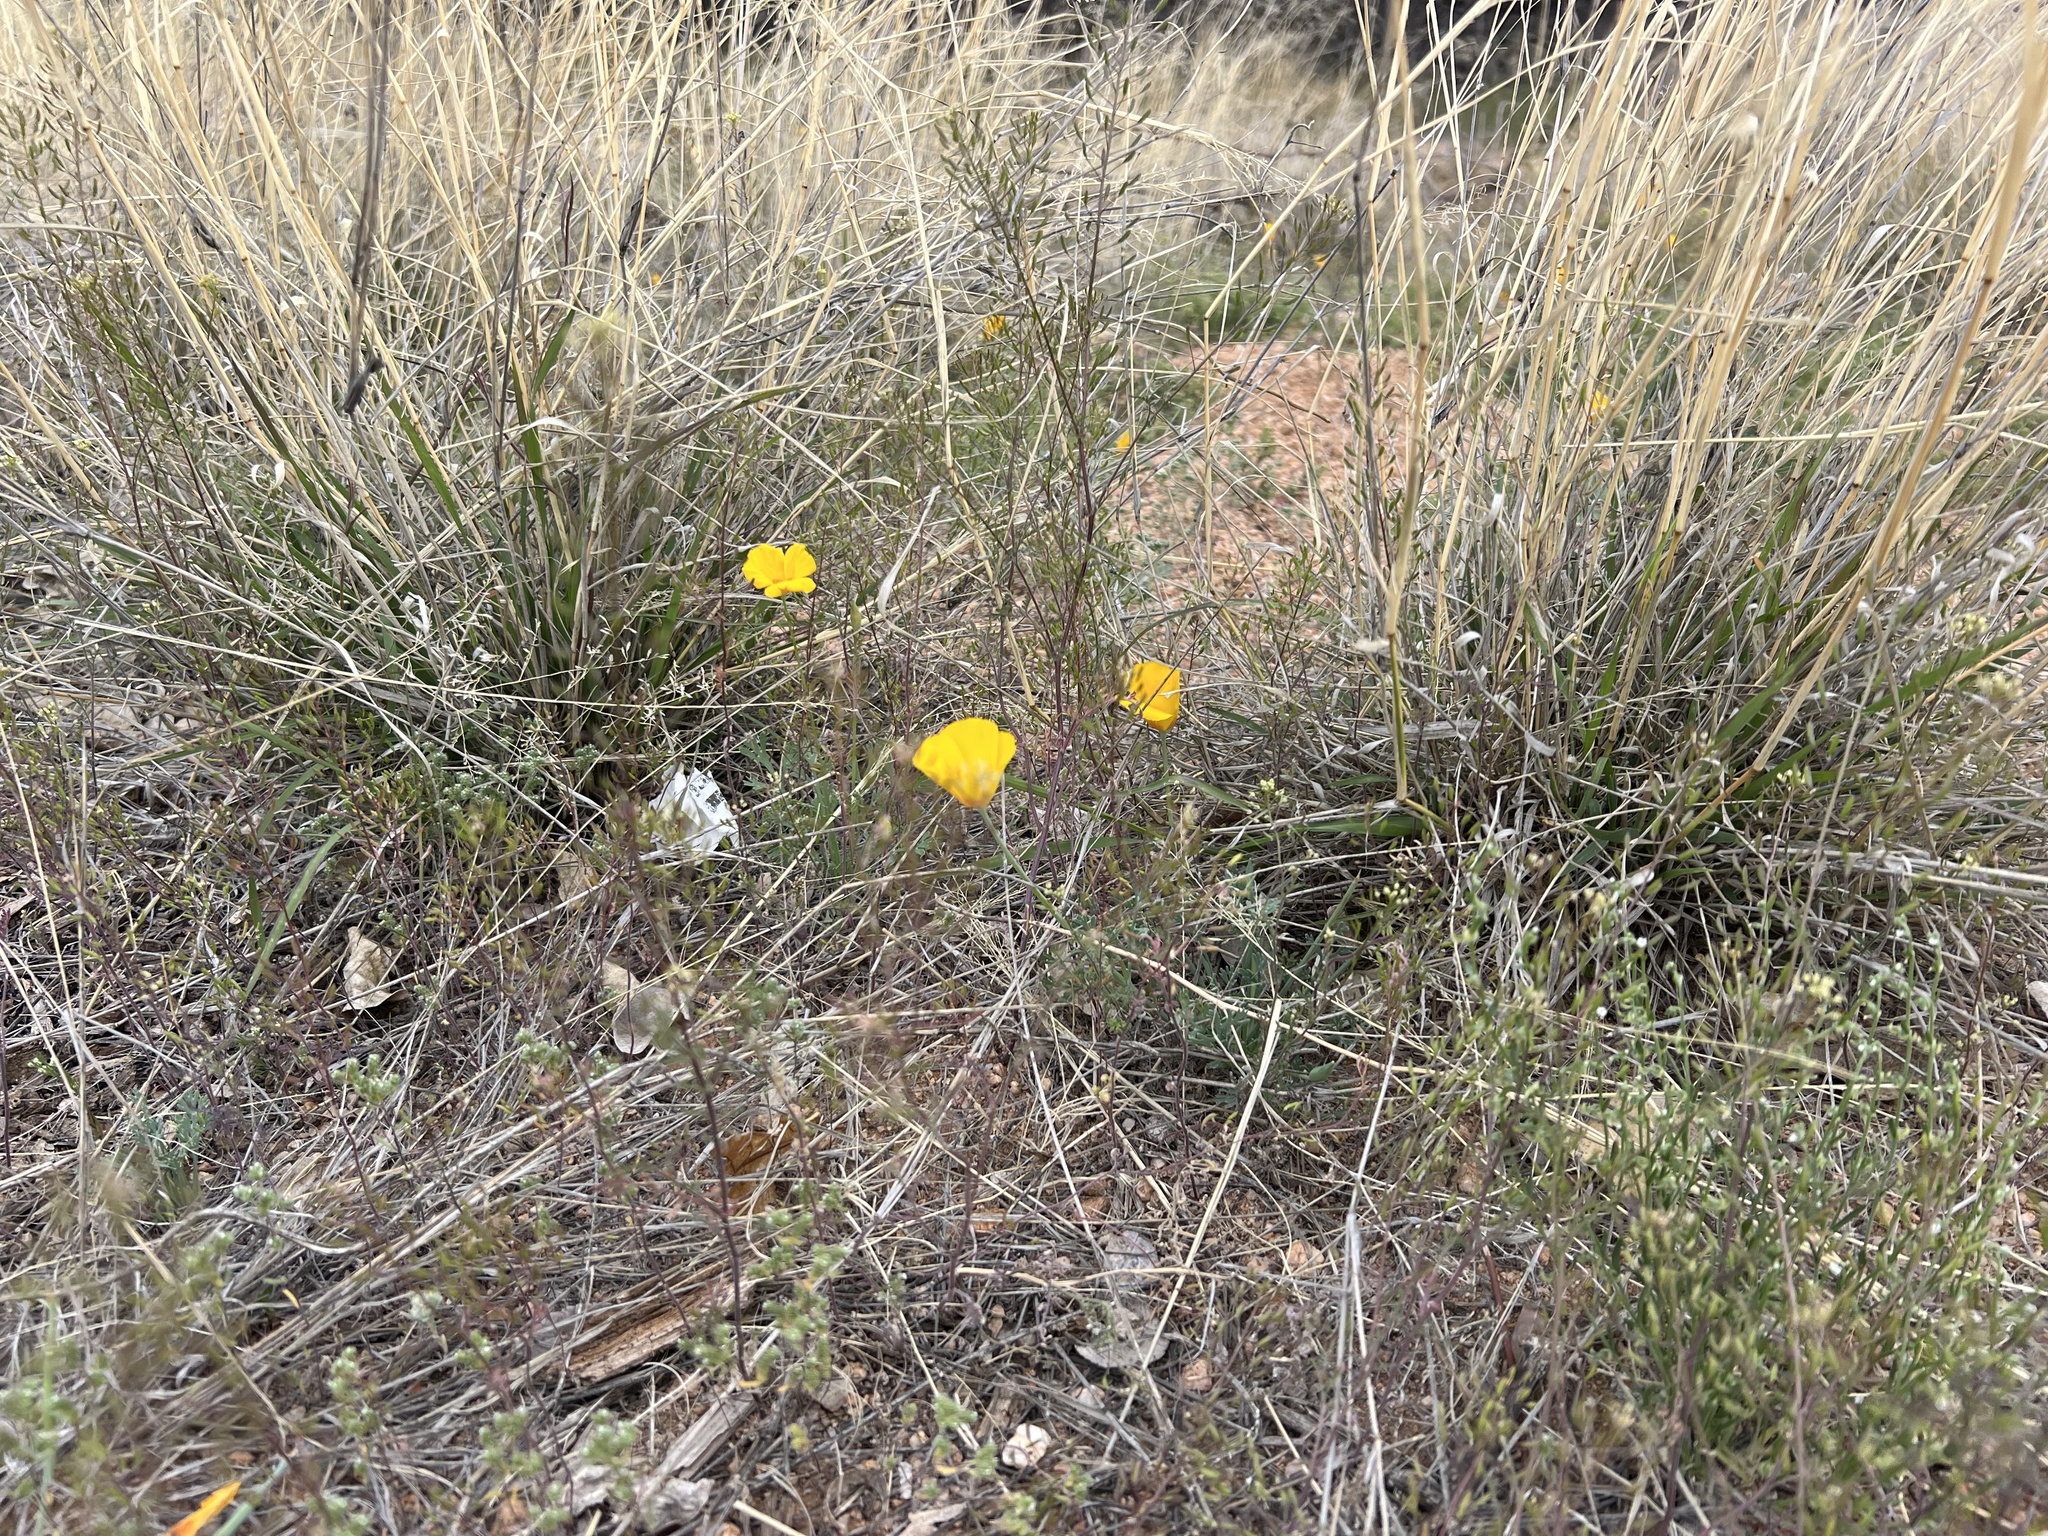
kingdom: Plantae
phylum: Tracheophyta
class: Magnoliopsida
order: Ranunculales
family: Papaveraceae
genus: Eschscholzia
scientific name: Eschscholzia californica
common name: California poppy
